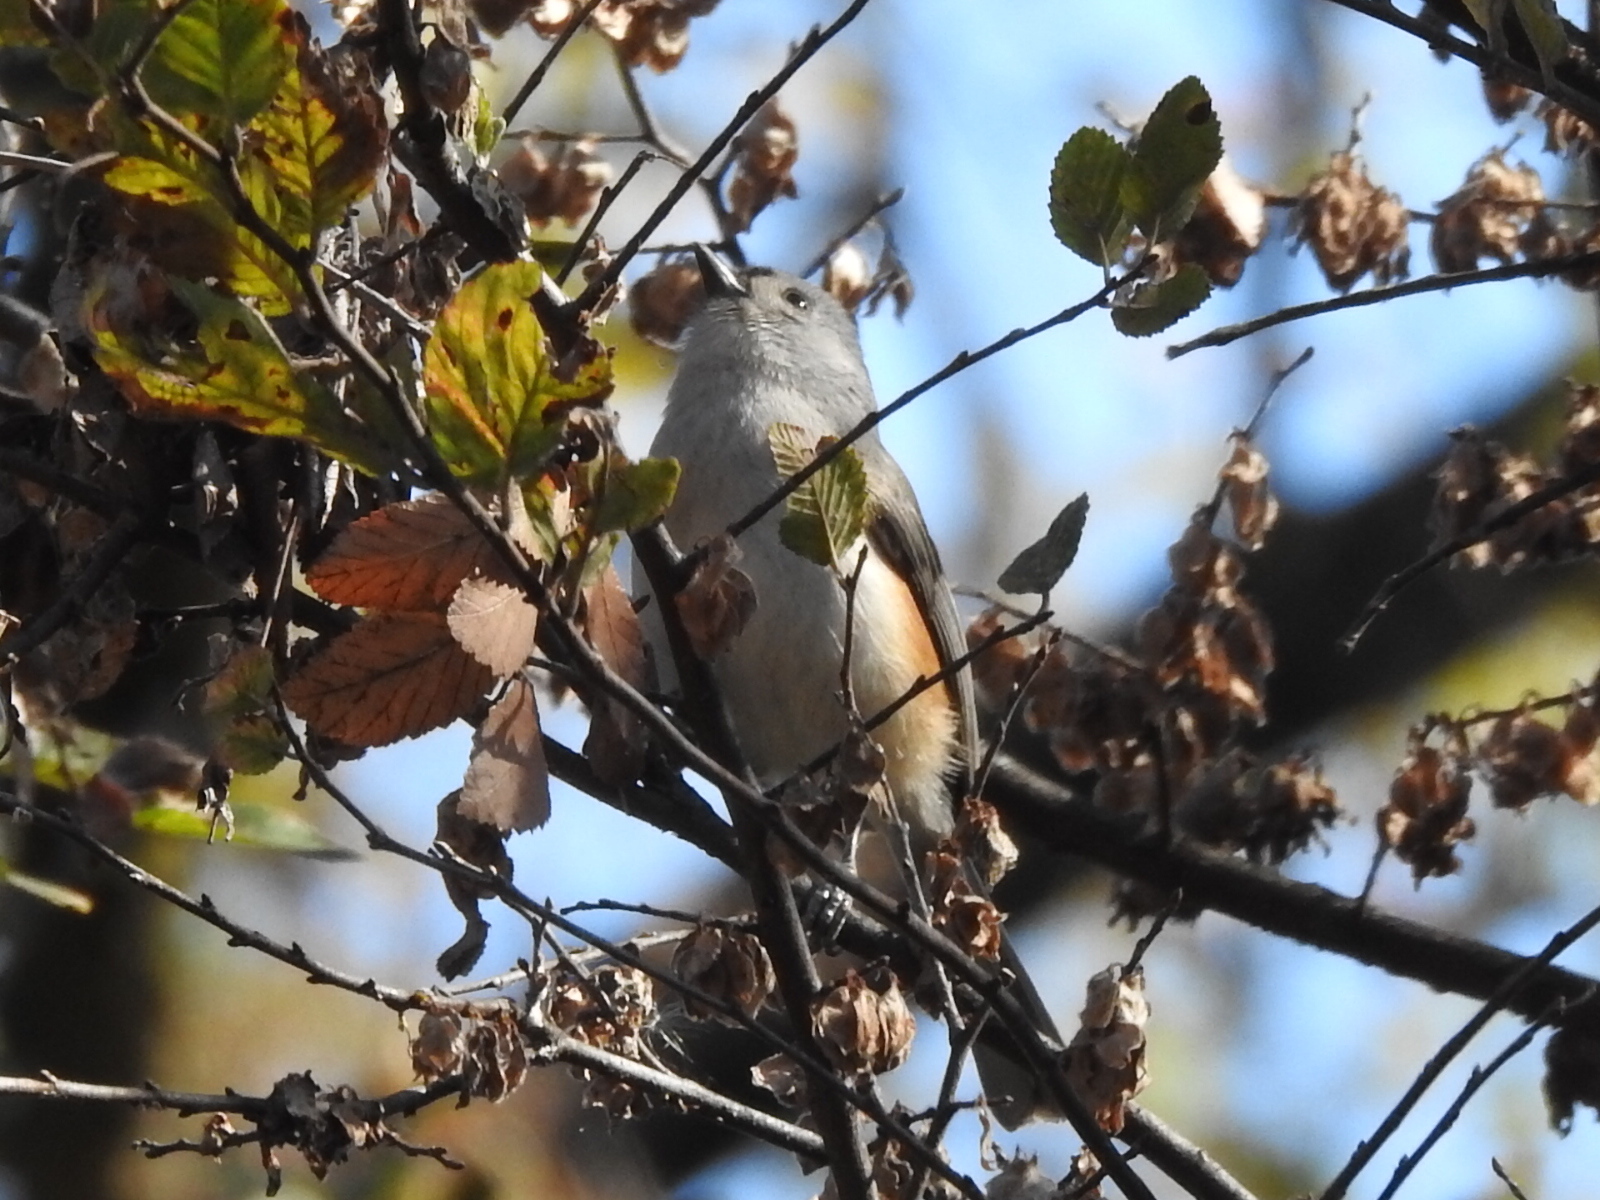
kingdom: Animalia
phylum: Chordata
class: Aves
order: Passeriformes
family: Paridae
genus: Baeolophus
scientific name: Baeolophus bicolor
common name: Tufted titmouse
